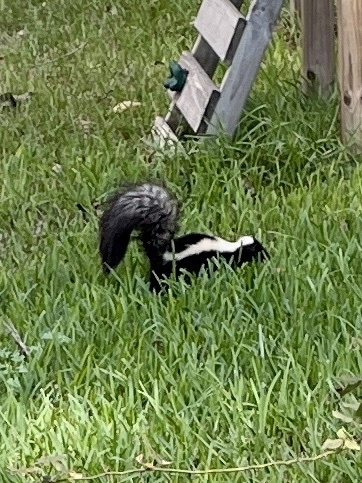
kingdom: Animalia
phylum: Chordata
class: Mammalia
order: Carnivora
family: Mephitidae
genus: Mephitis
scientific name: Mephitis mephitis
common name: Striped skunk
